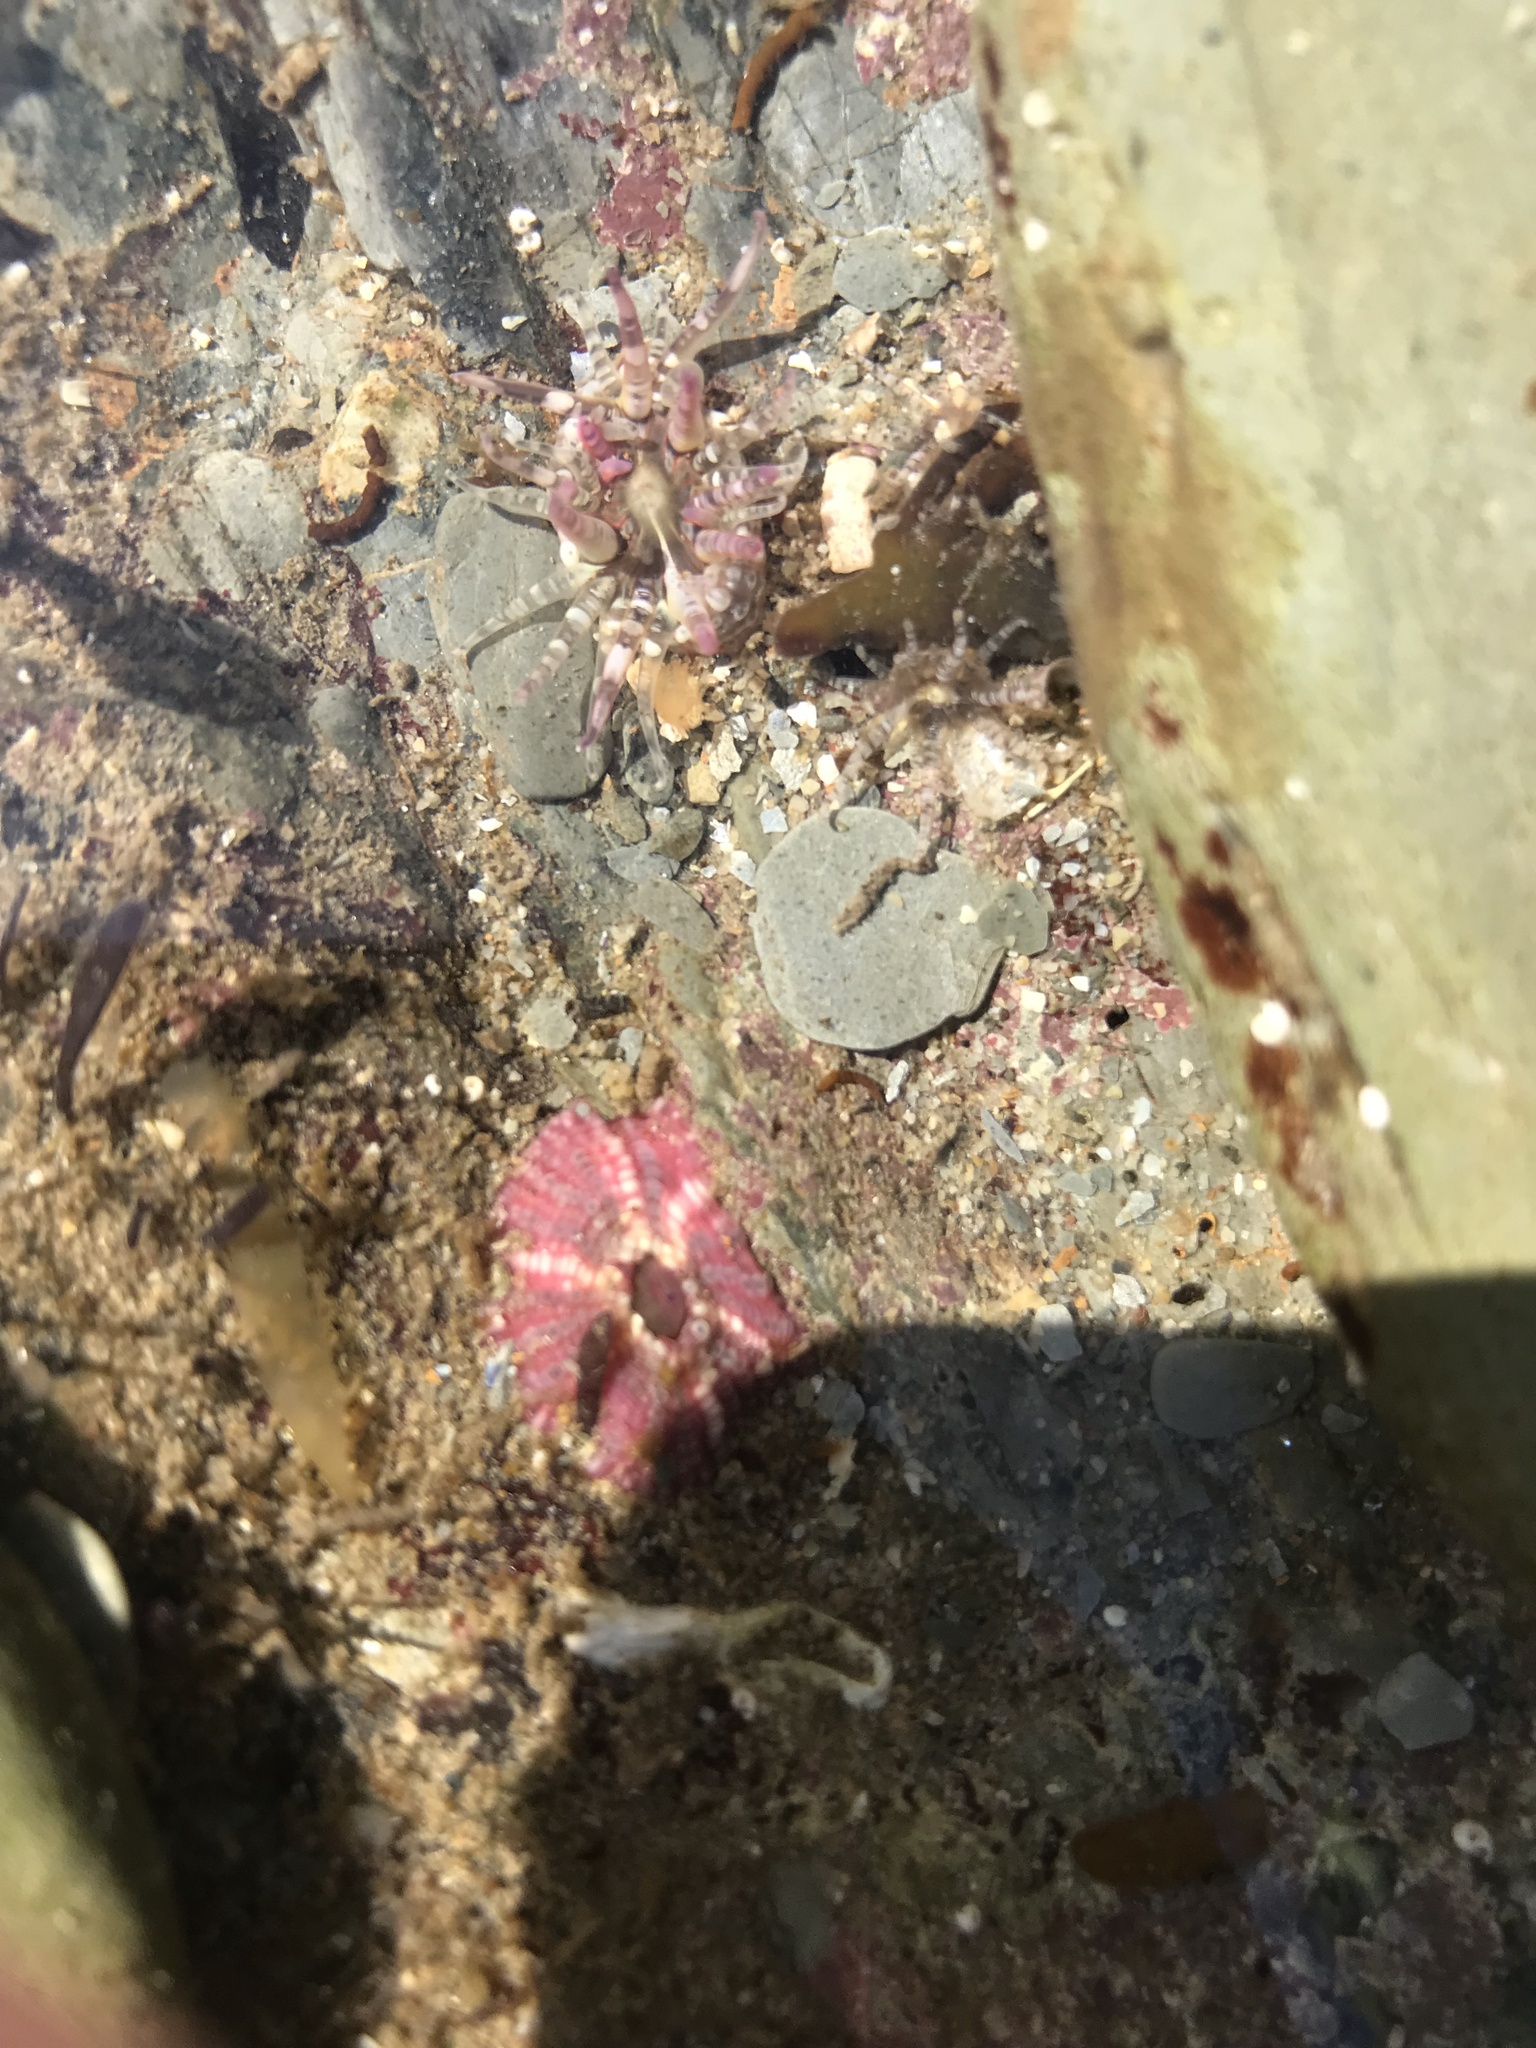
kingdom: Animalia
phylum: Cnidaria
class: Anthozoa
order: Actiniaria
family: Actiniidae
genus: Bunodactis
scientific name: Bunodactis verrucosa
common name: Gem anemone
